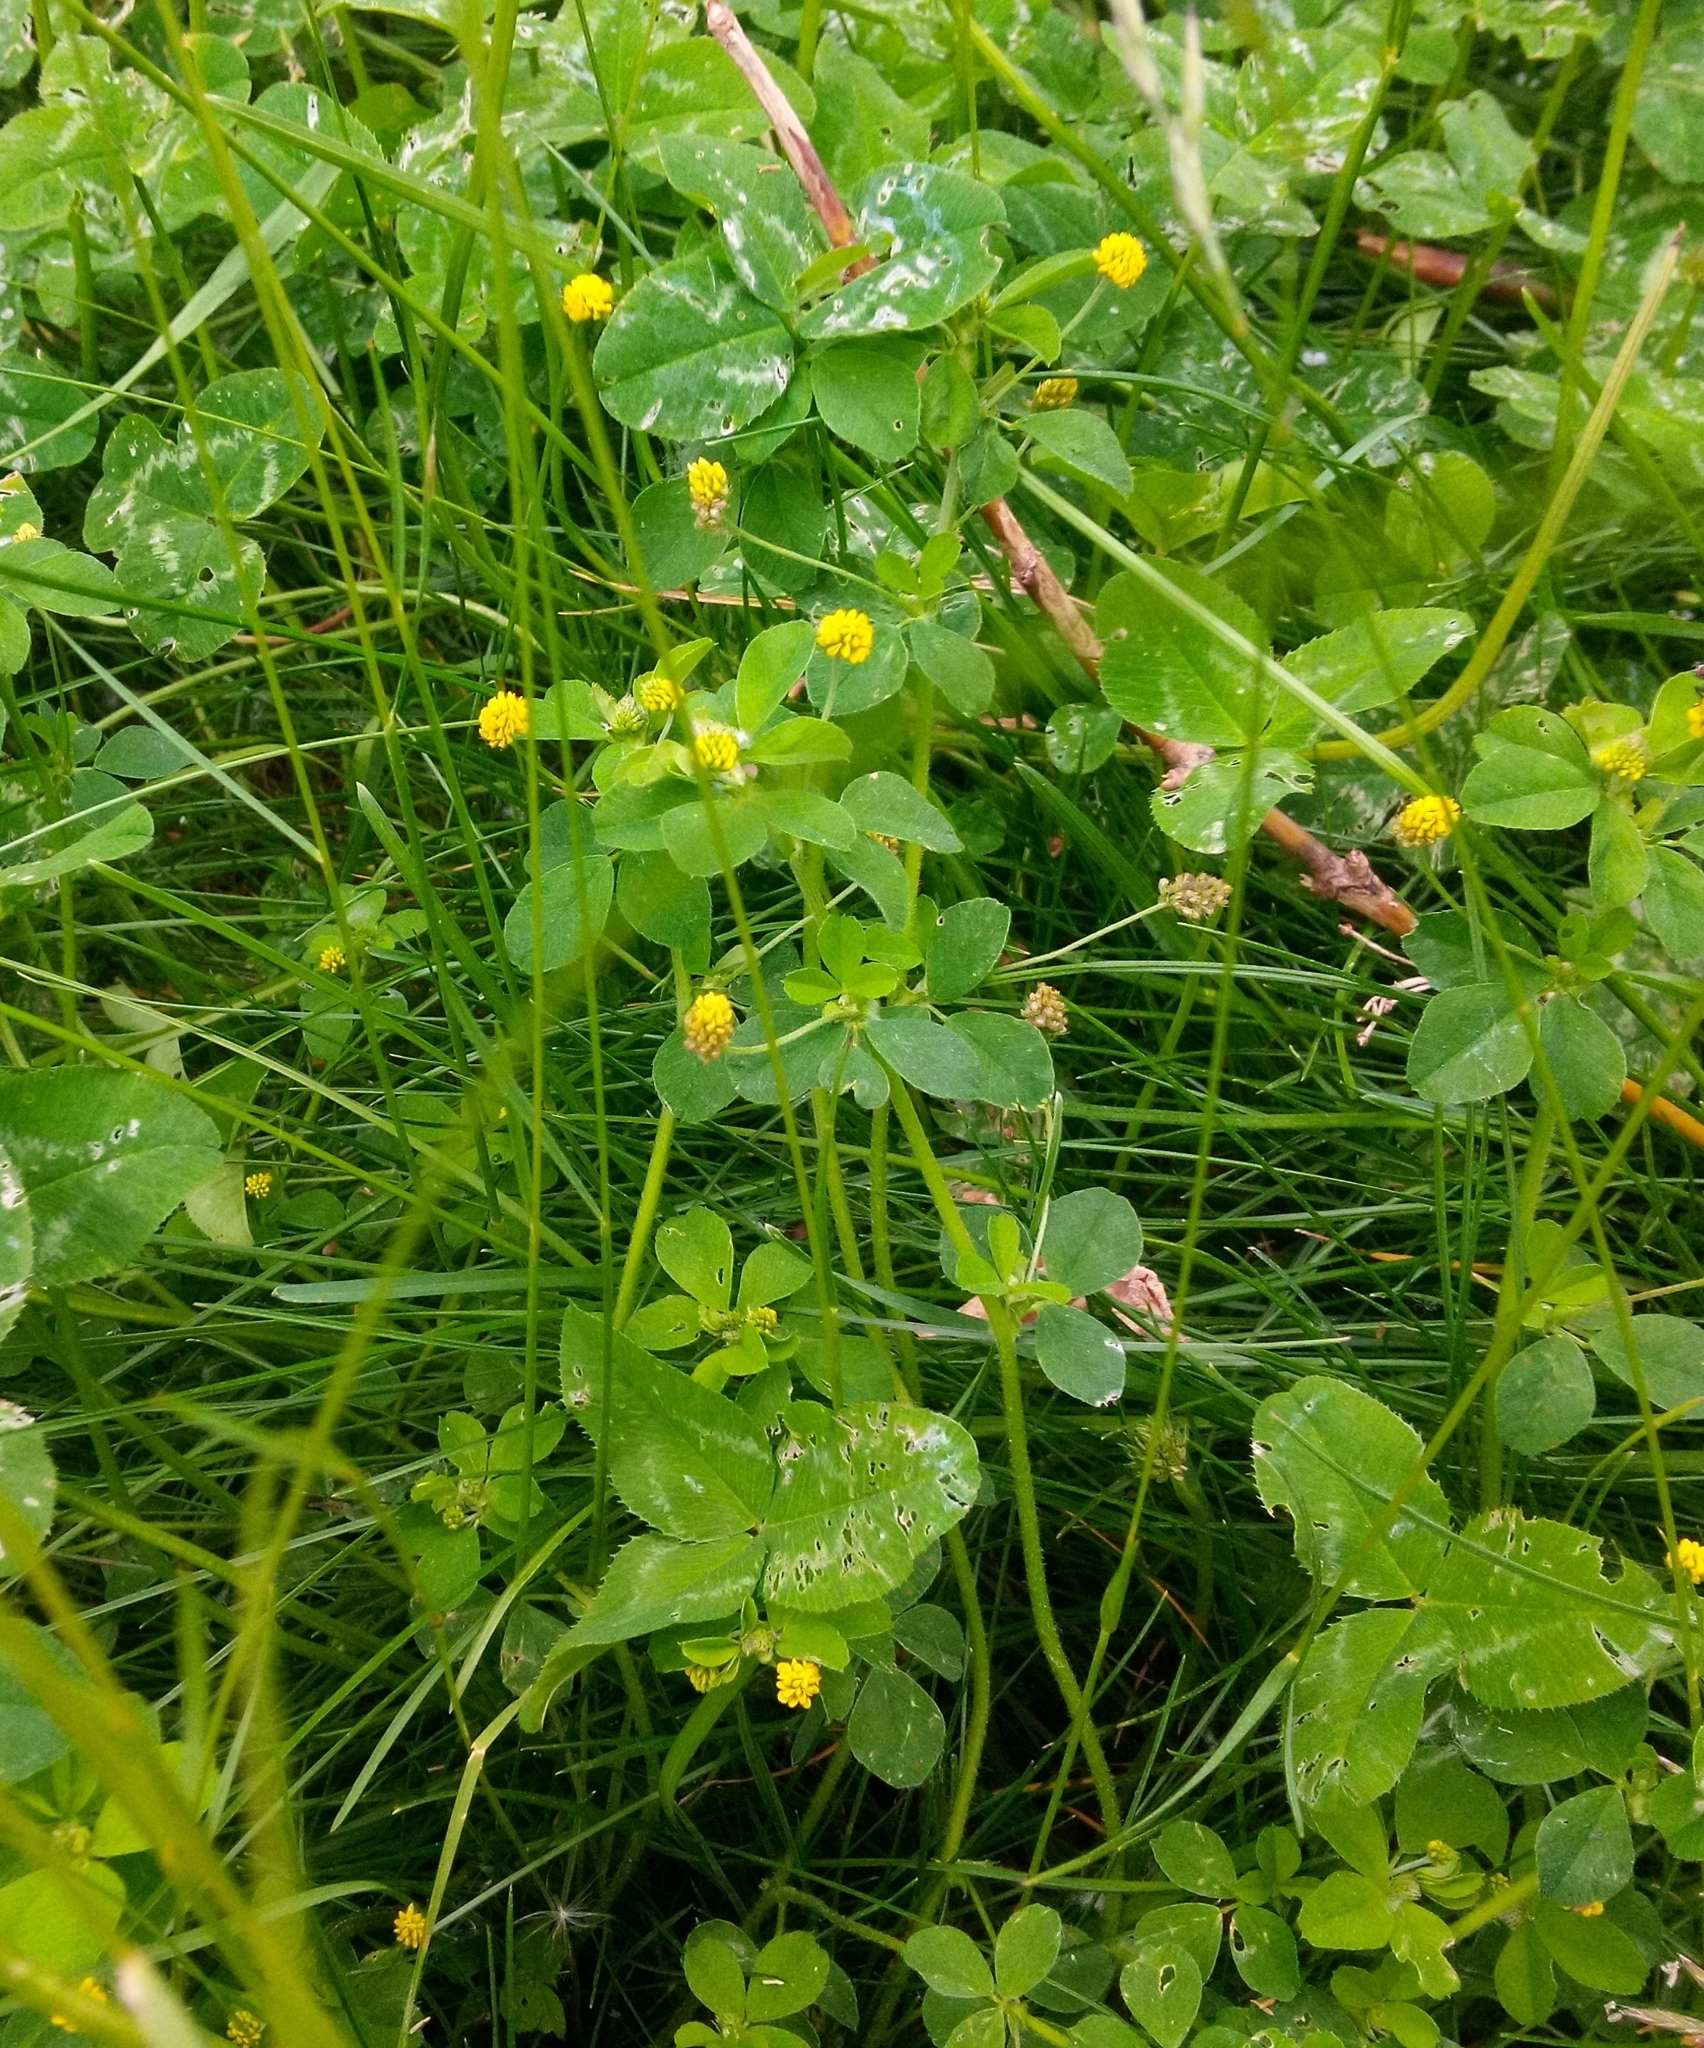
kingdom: Plantae
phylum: Tracheophyta
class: Magnoliopsida
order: Fabales
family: Fabaceae
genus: Medicago
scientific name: Medicago lupulina
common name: Black medick
